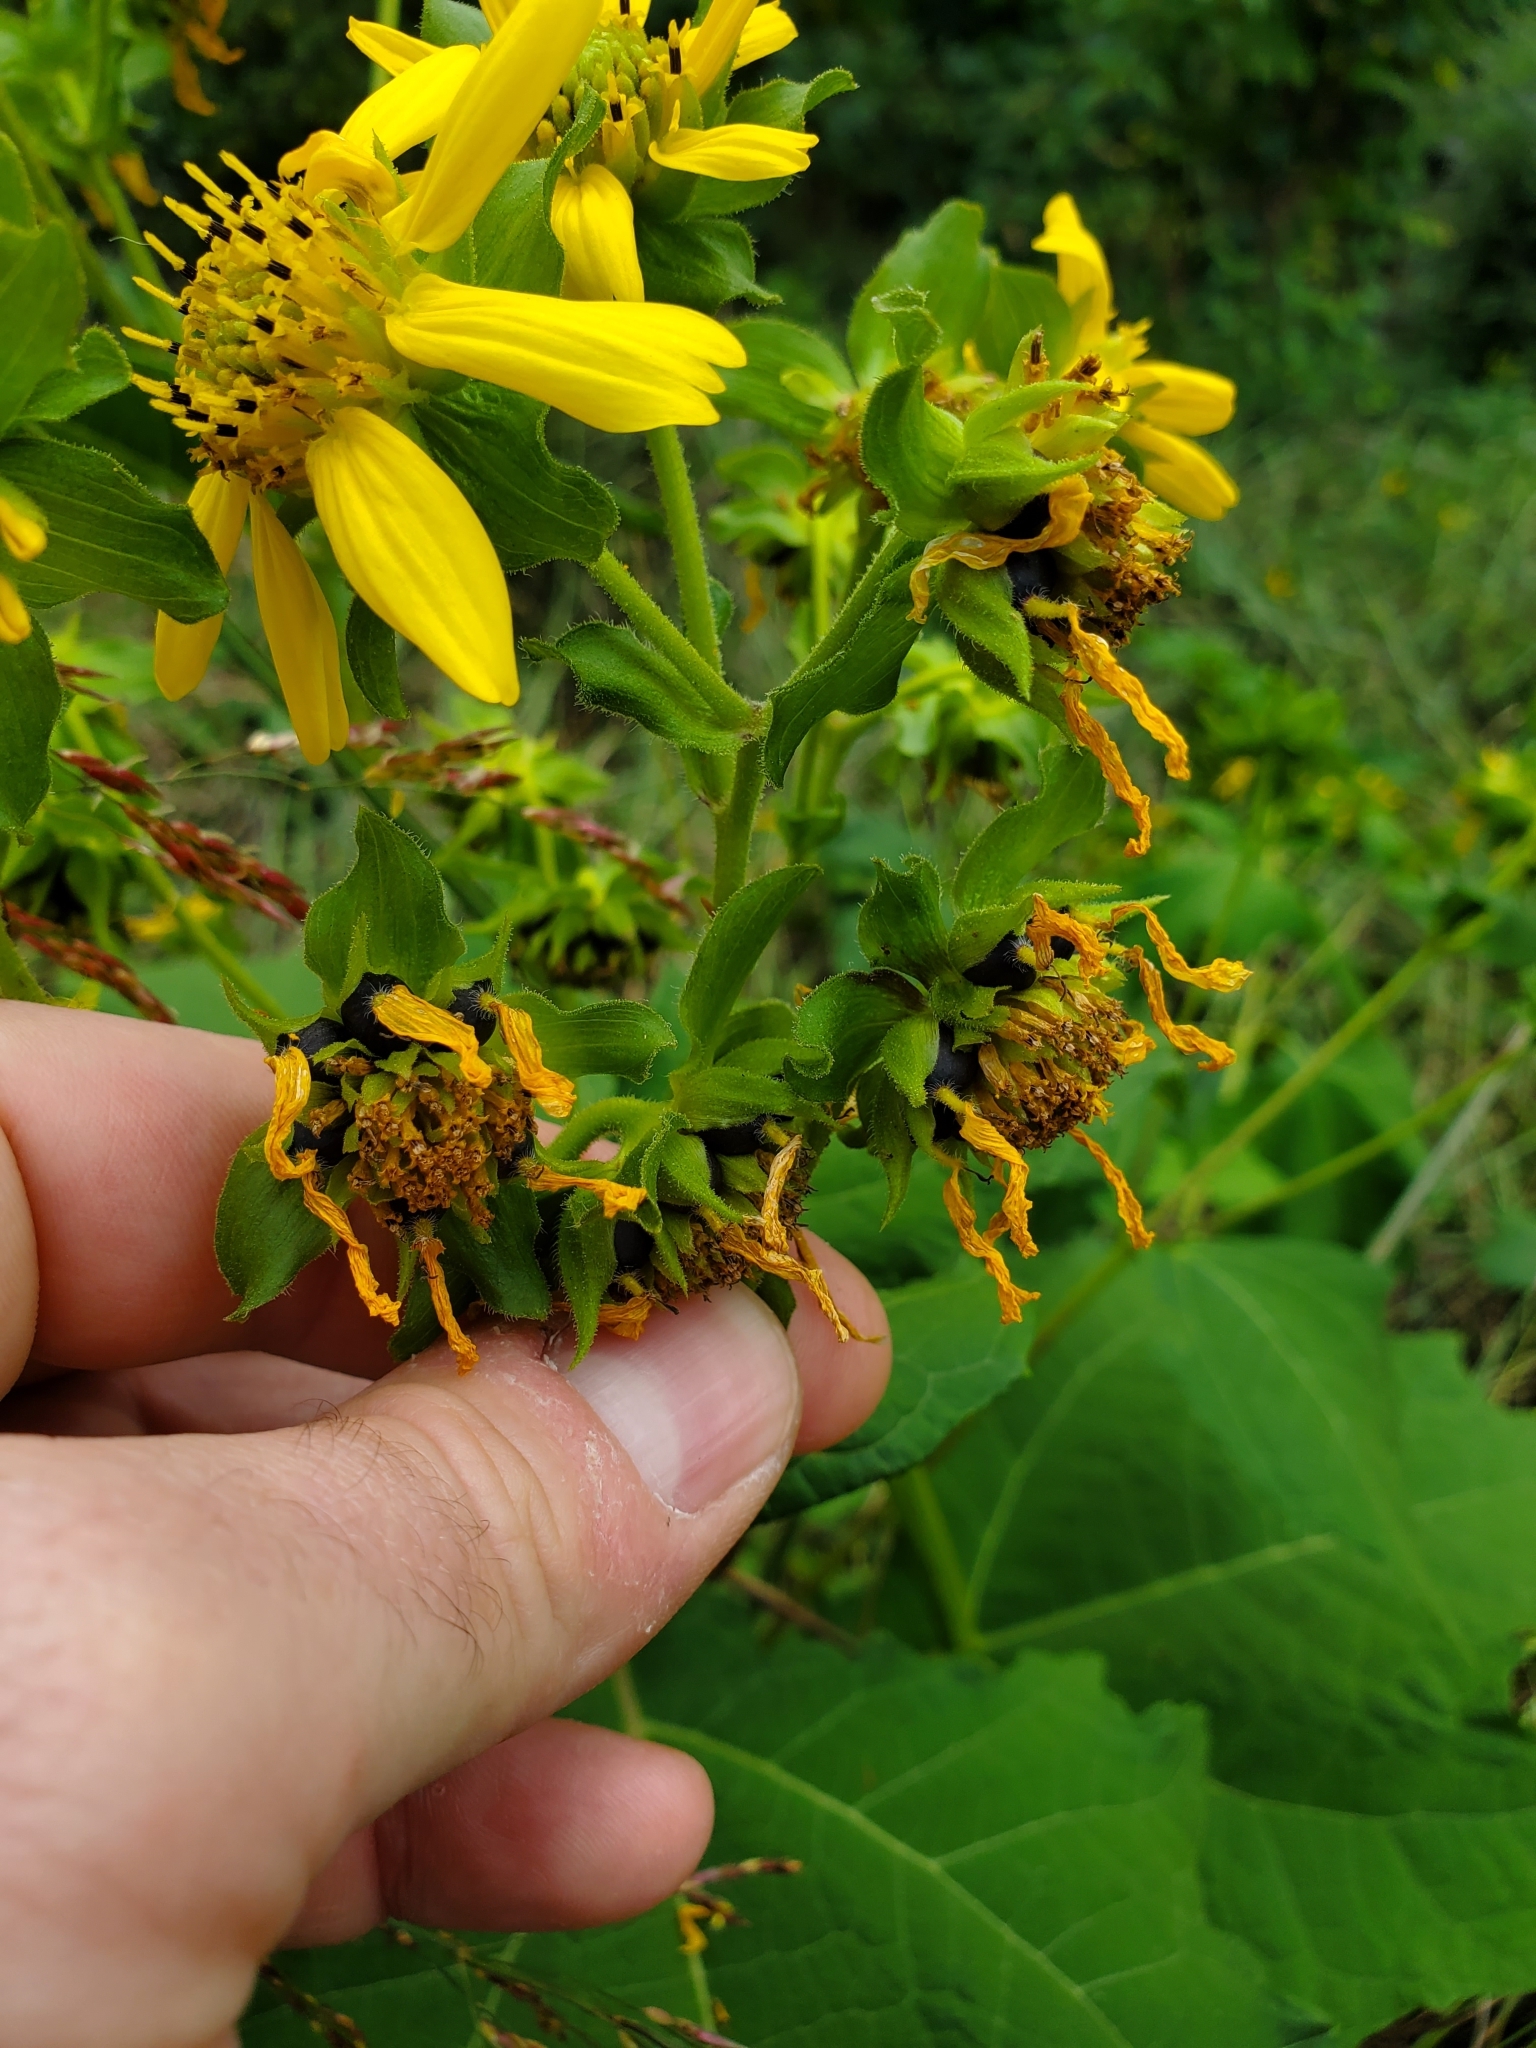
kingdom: Plantae
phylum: Tracheophyta
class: Magnoliopsida
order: Asterales
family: Asteraceae
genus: Smallanthus
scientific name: Smallanthus uvedalia
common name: Bear's-foot
